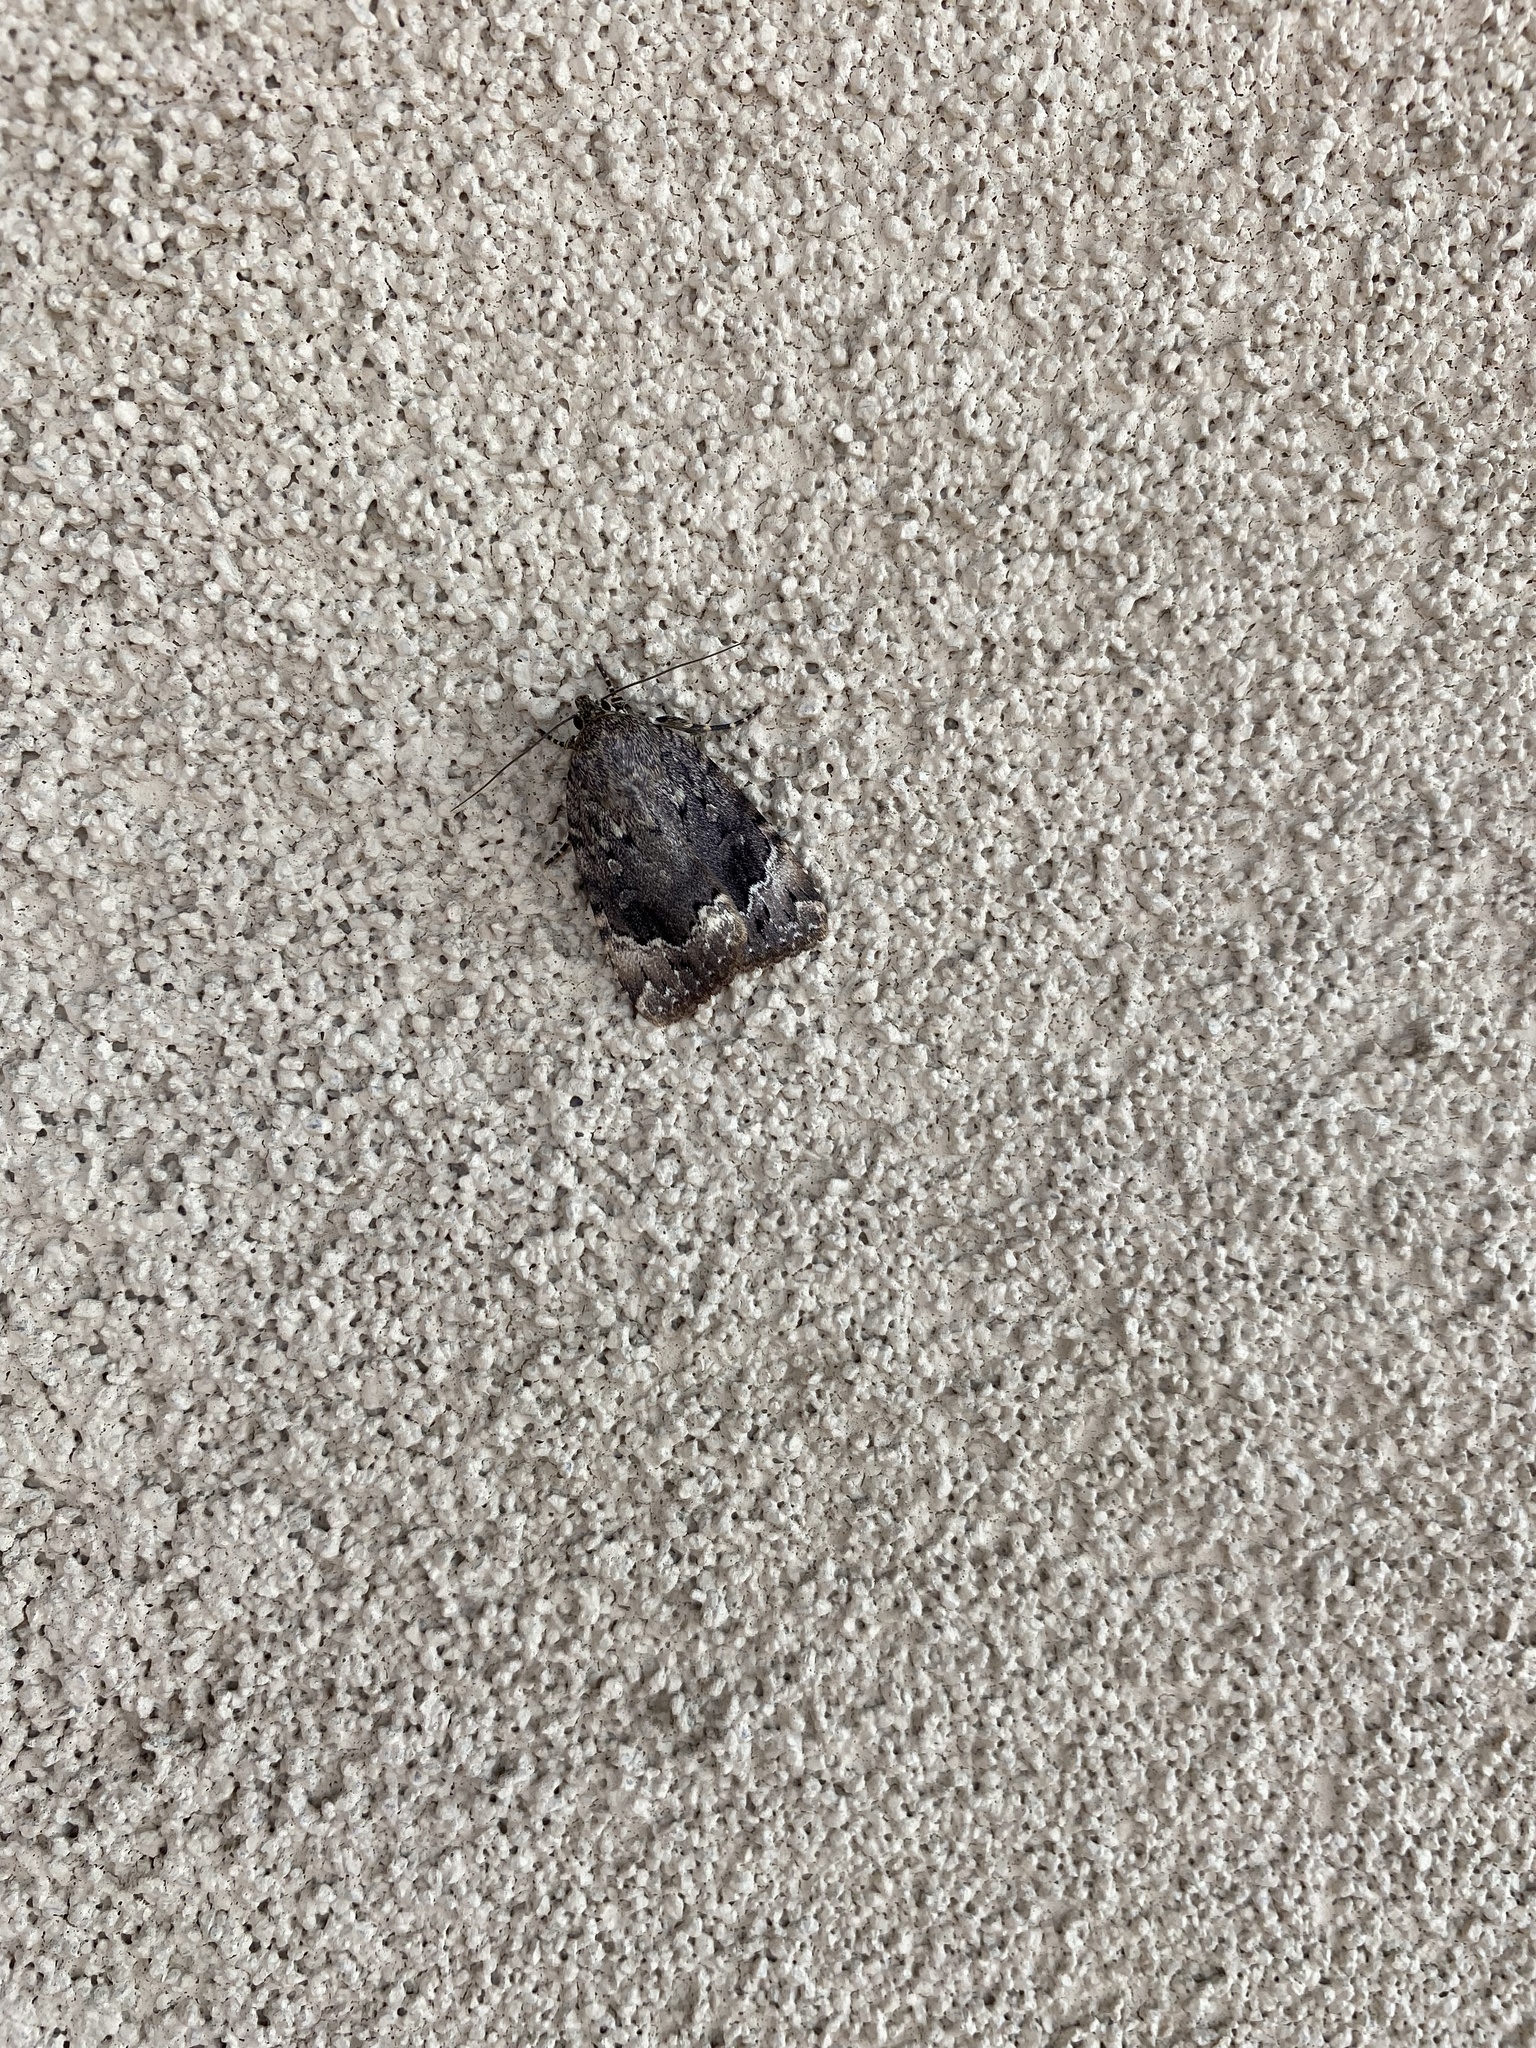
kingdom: Animalia
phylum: Arthropoda
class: Insecta
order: Lepidoptera
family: Noctuidae
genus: Amphipyra
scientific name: Amphipyra pyramidoides
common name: American copper underwing
